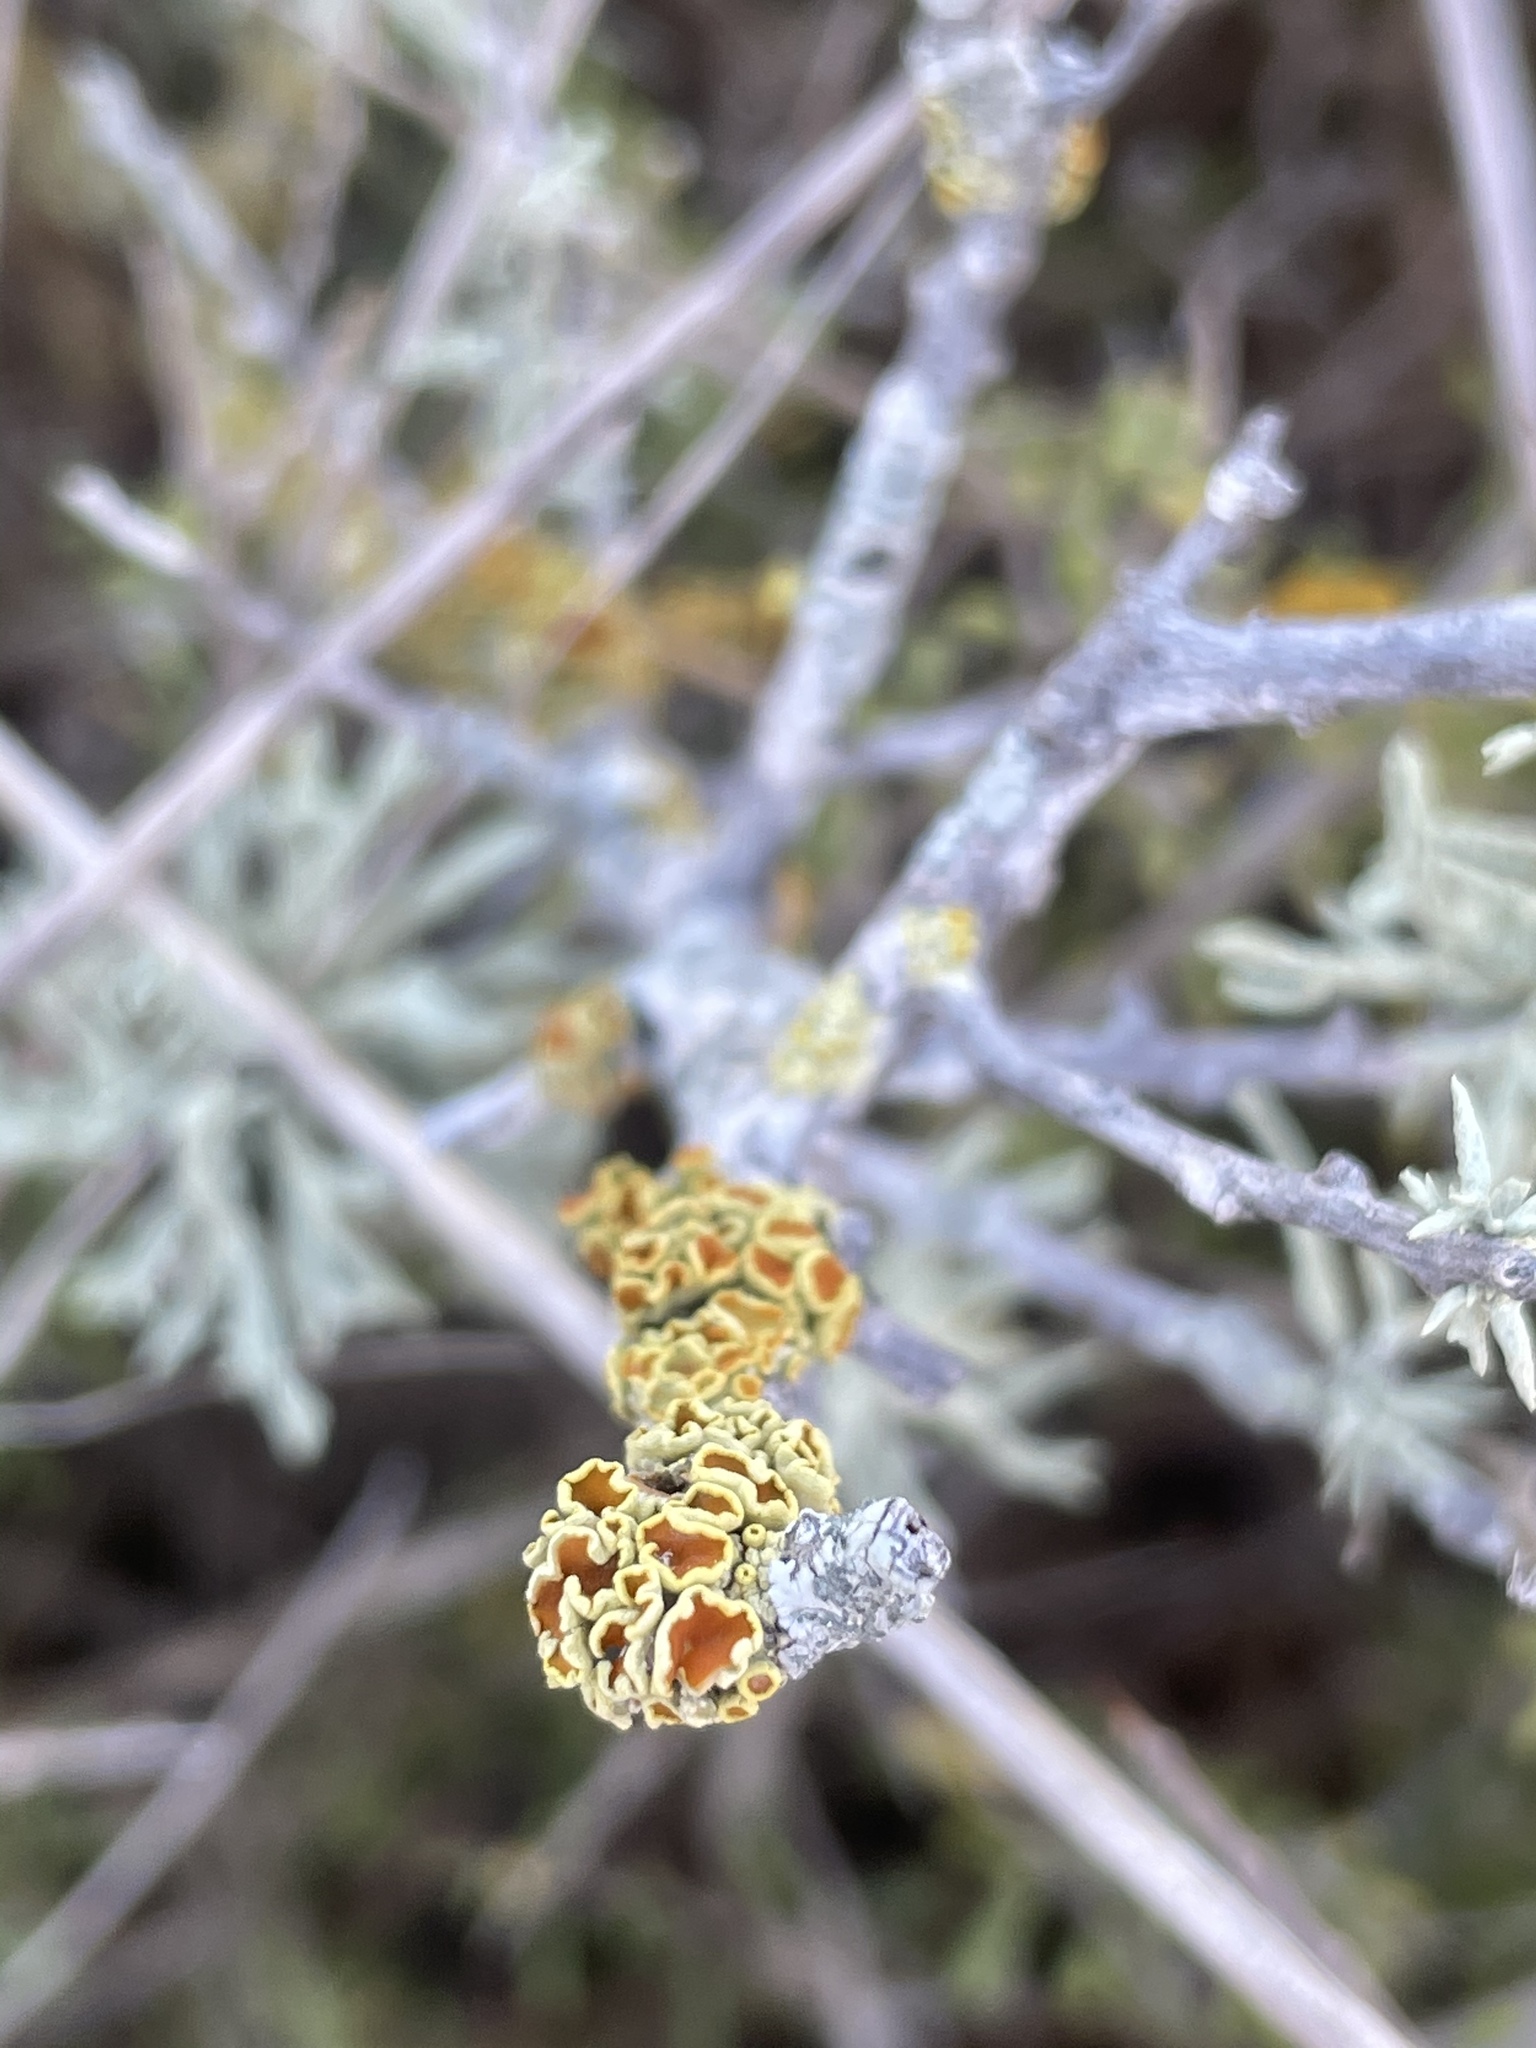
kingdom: Fungi
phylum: Ascomycota
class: Lecanoromycetes
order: Teloschistales
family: Teloschistaceae
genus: Gyalolechia
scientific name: Gyalolechia stipitata
